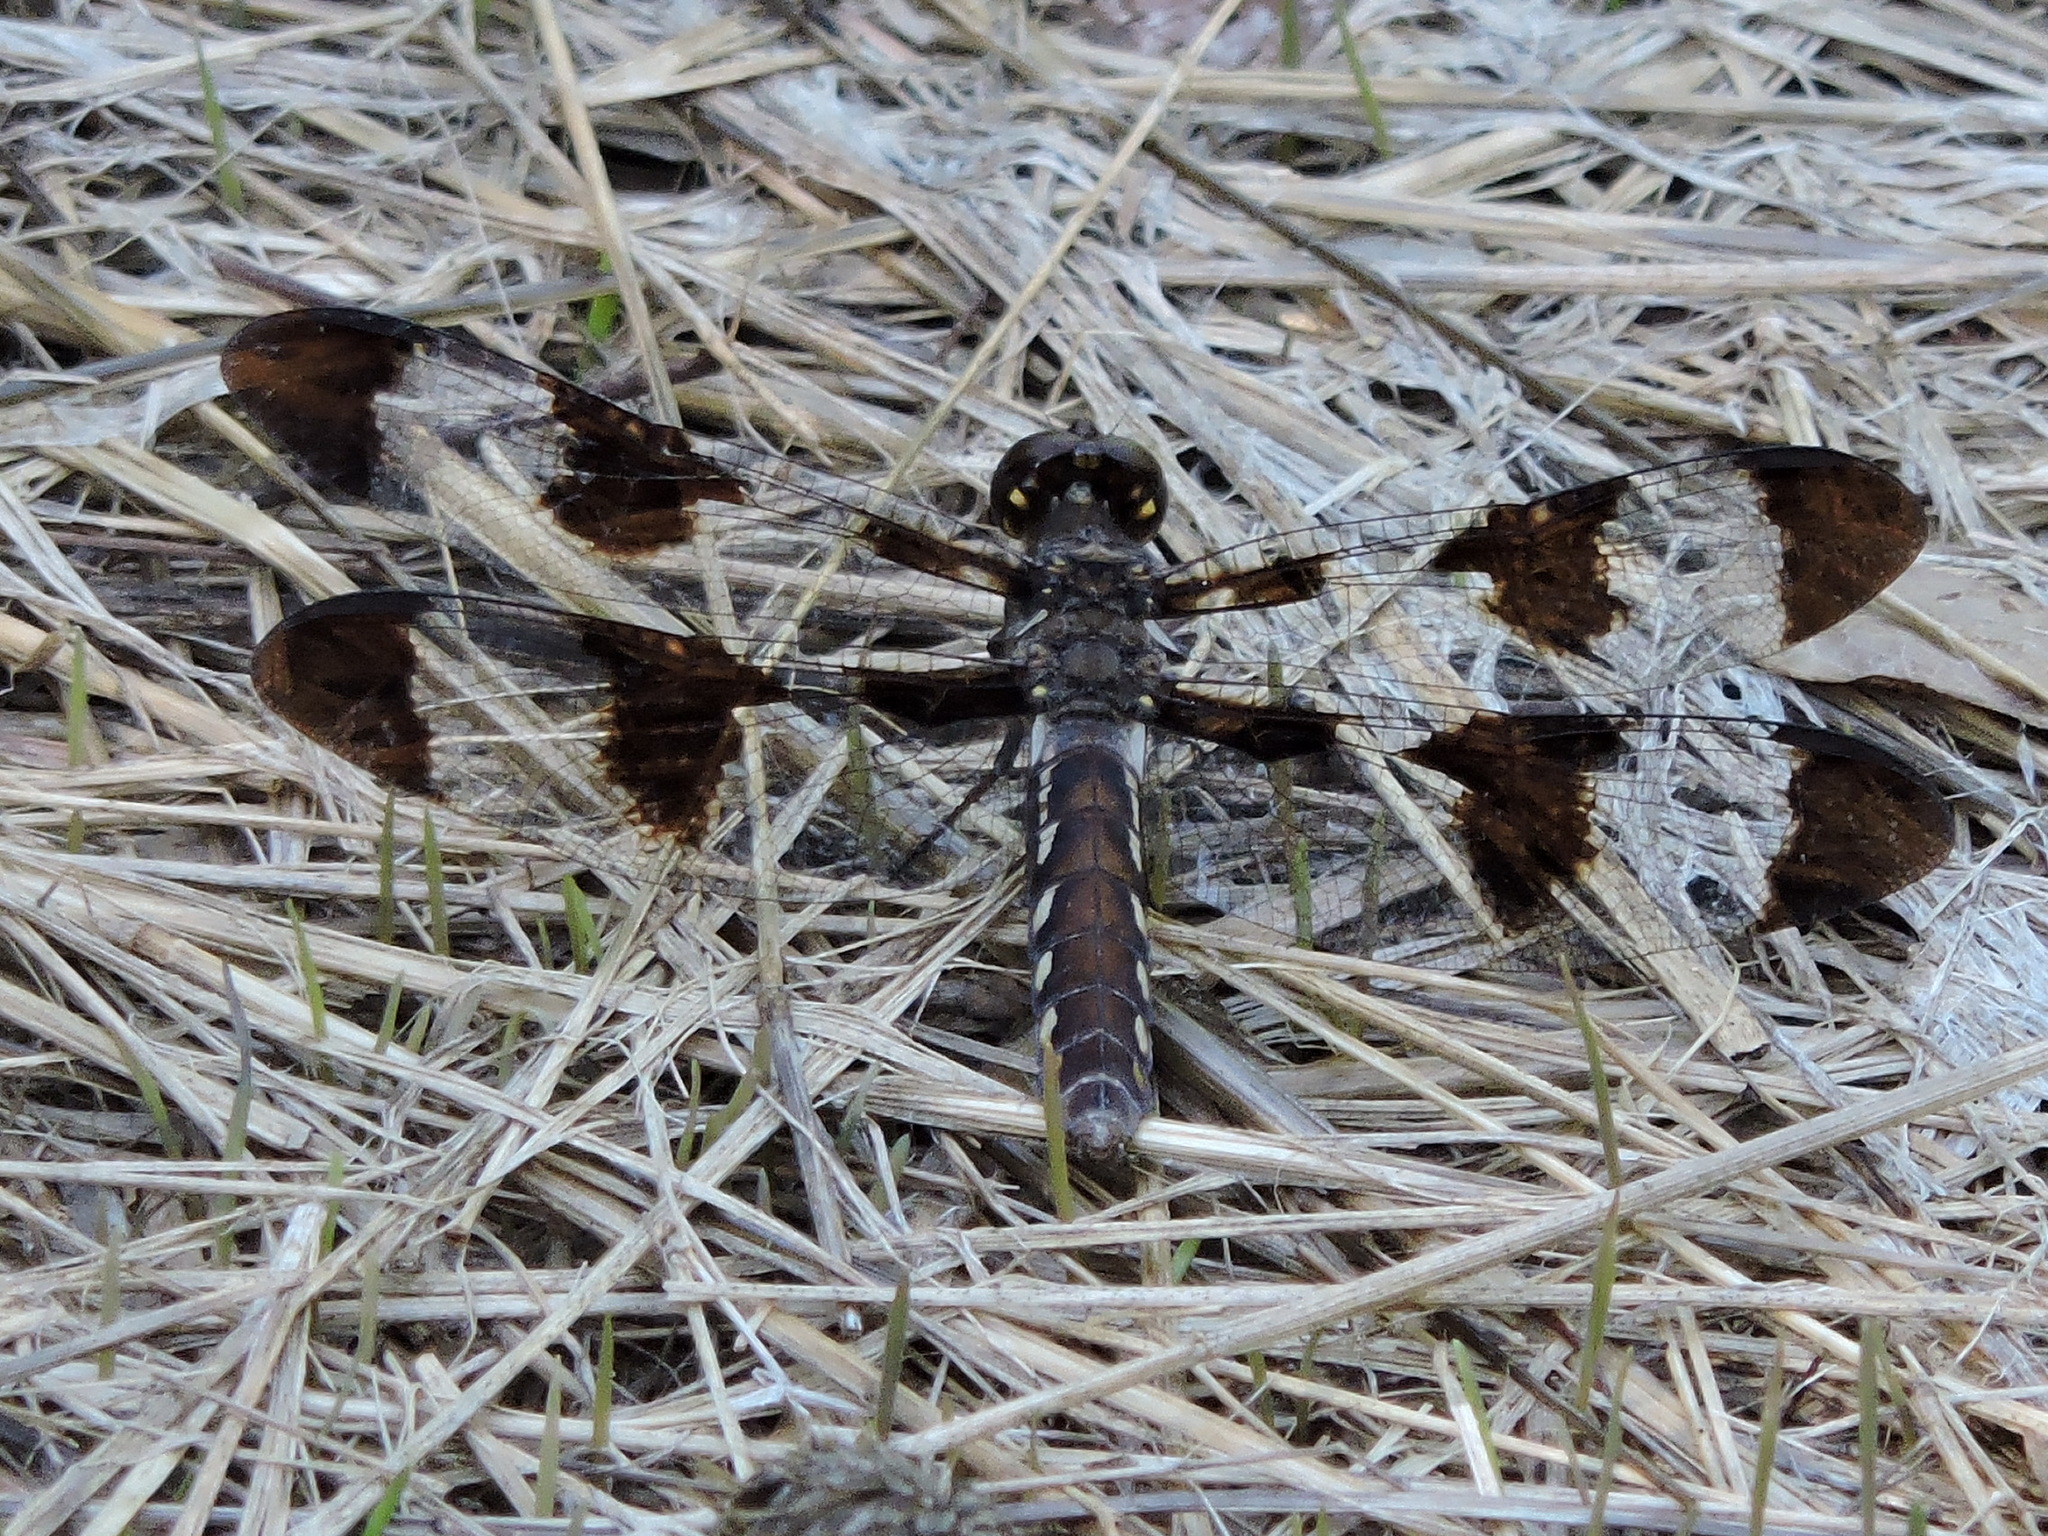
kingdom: Animalia
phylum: Arthropoda
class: Insecta
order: Odonata
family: Libellulidae
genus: Plathemis
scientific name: Plathemis lydia
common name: Common whitetail
